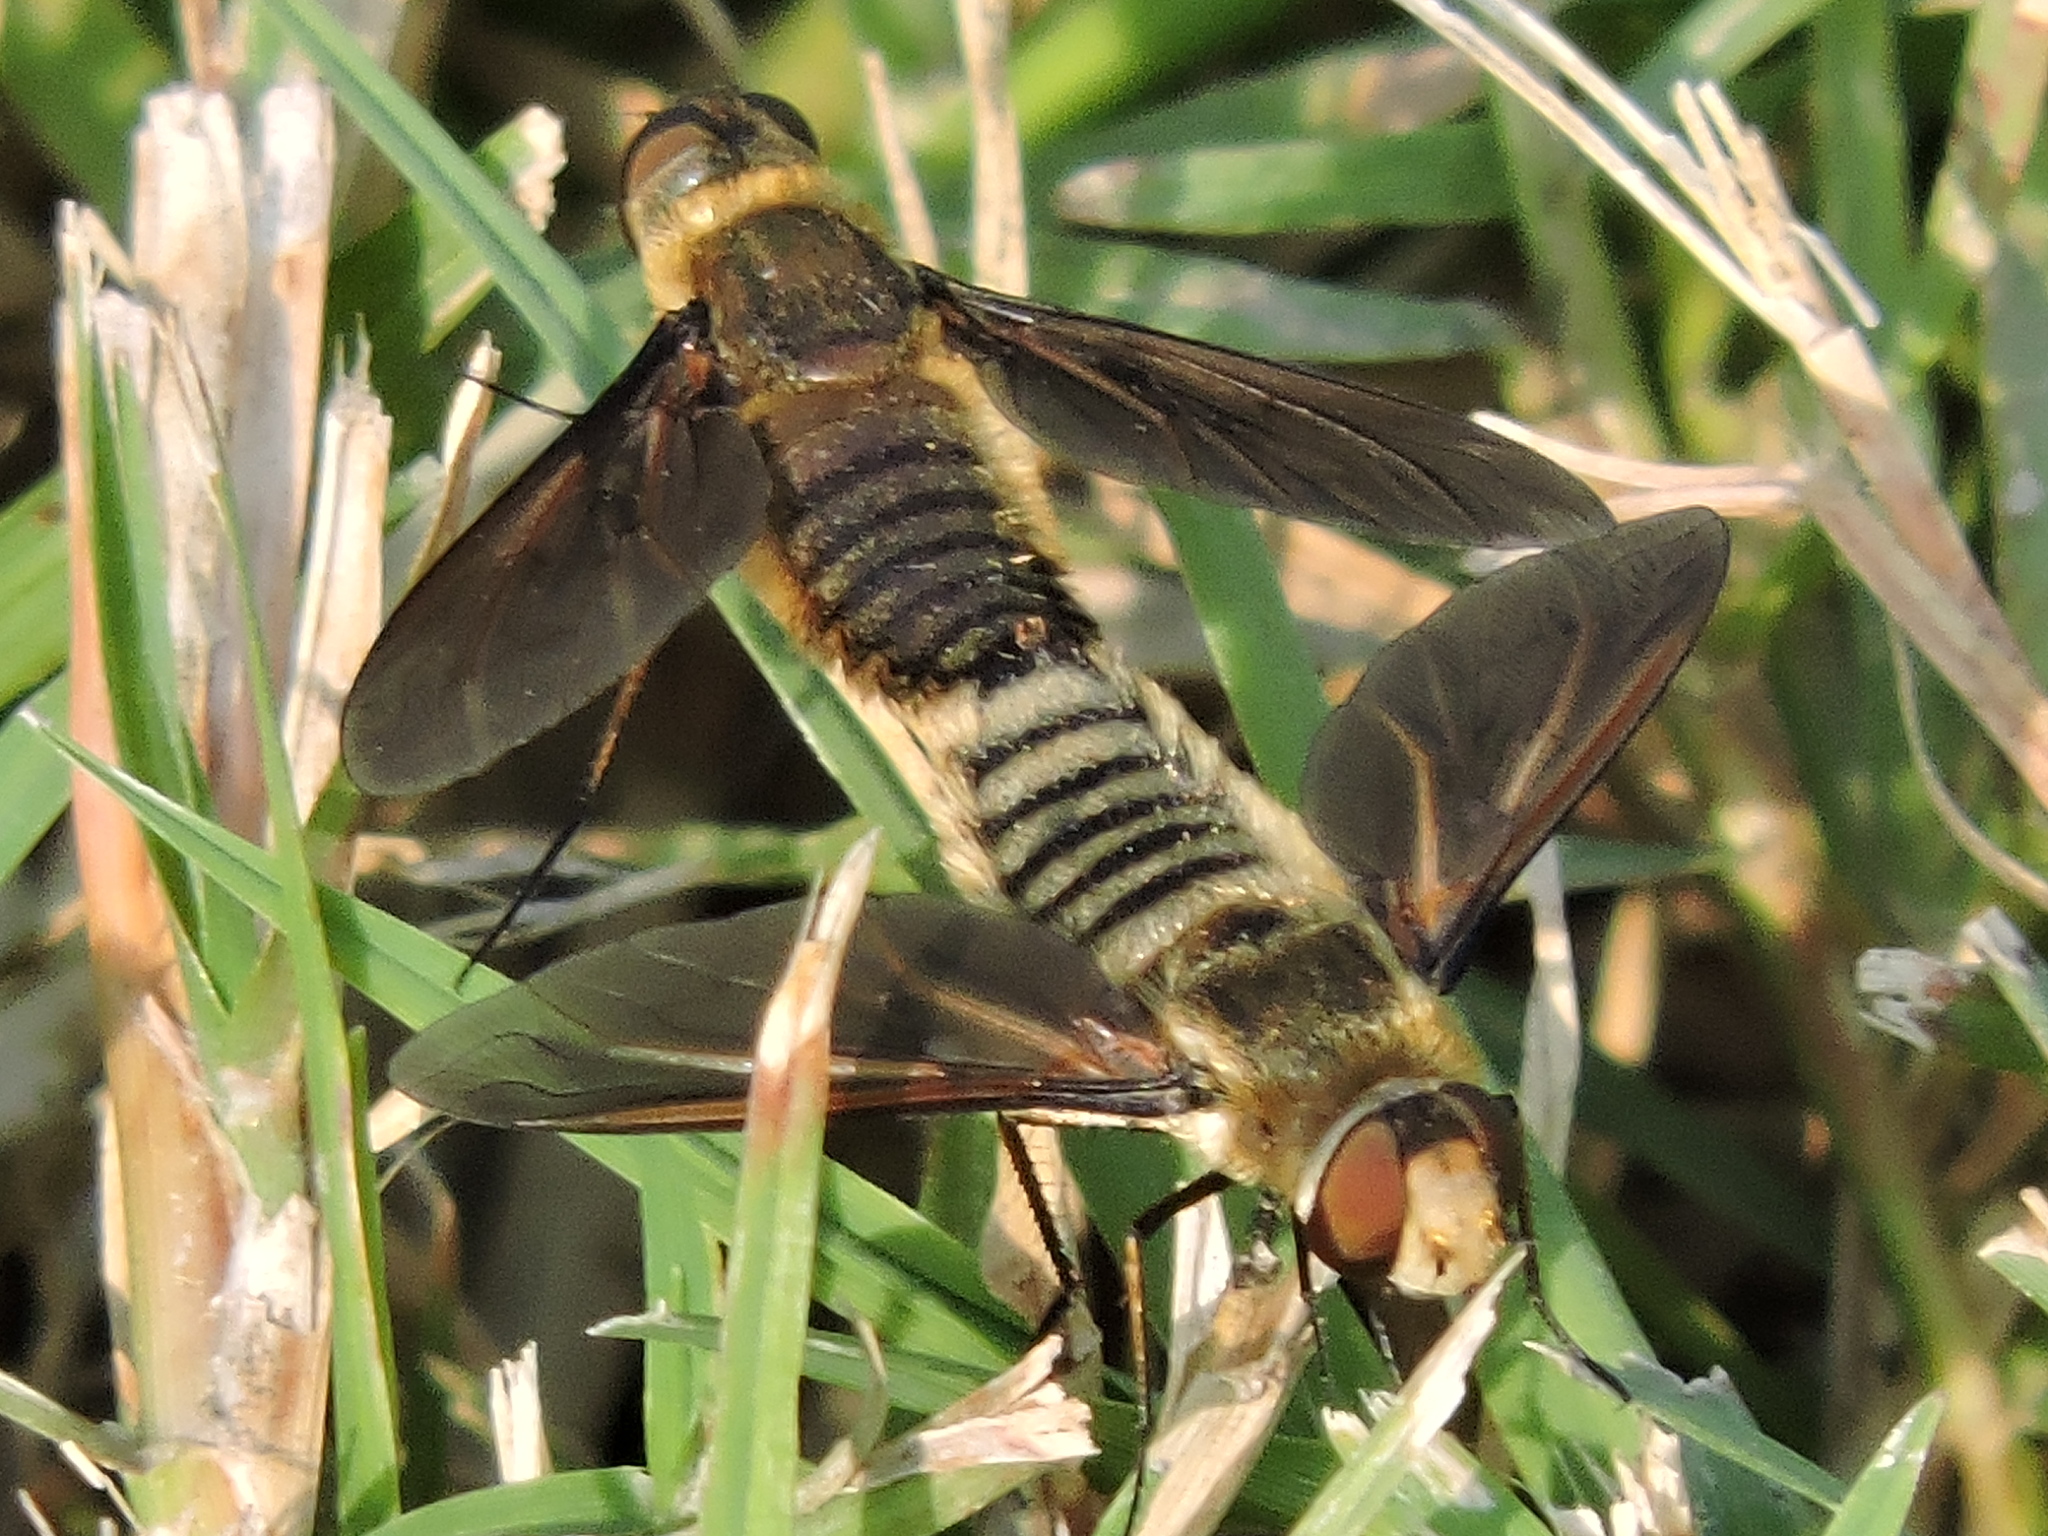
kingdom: Animalia
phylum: Arthropoda
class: Insecta
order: Diptera
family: Bombyliidae
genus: Poecilanthrax
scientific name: Poecilanthrax lucifer
